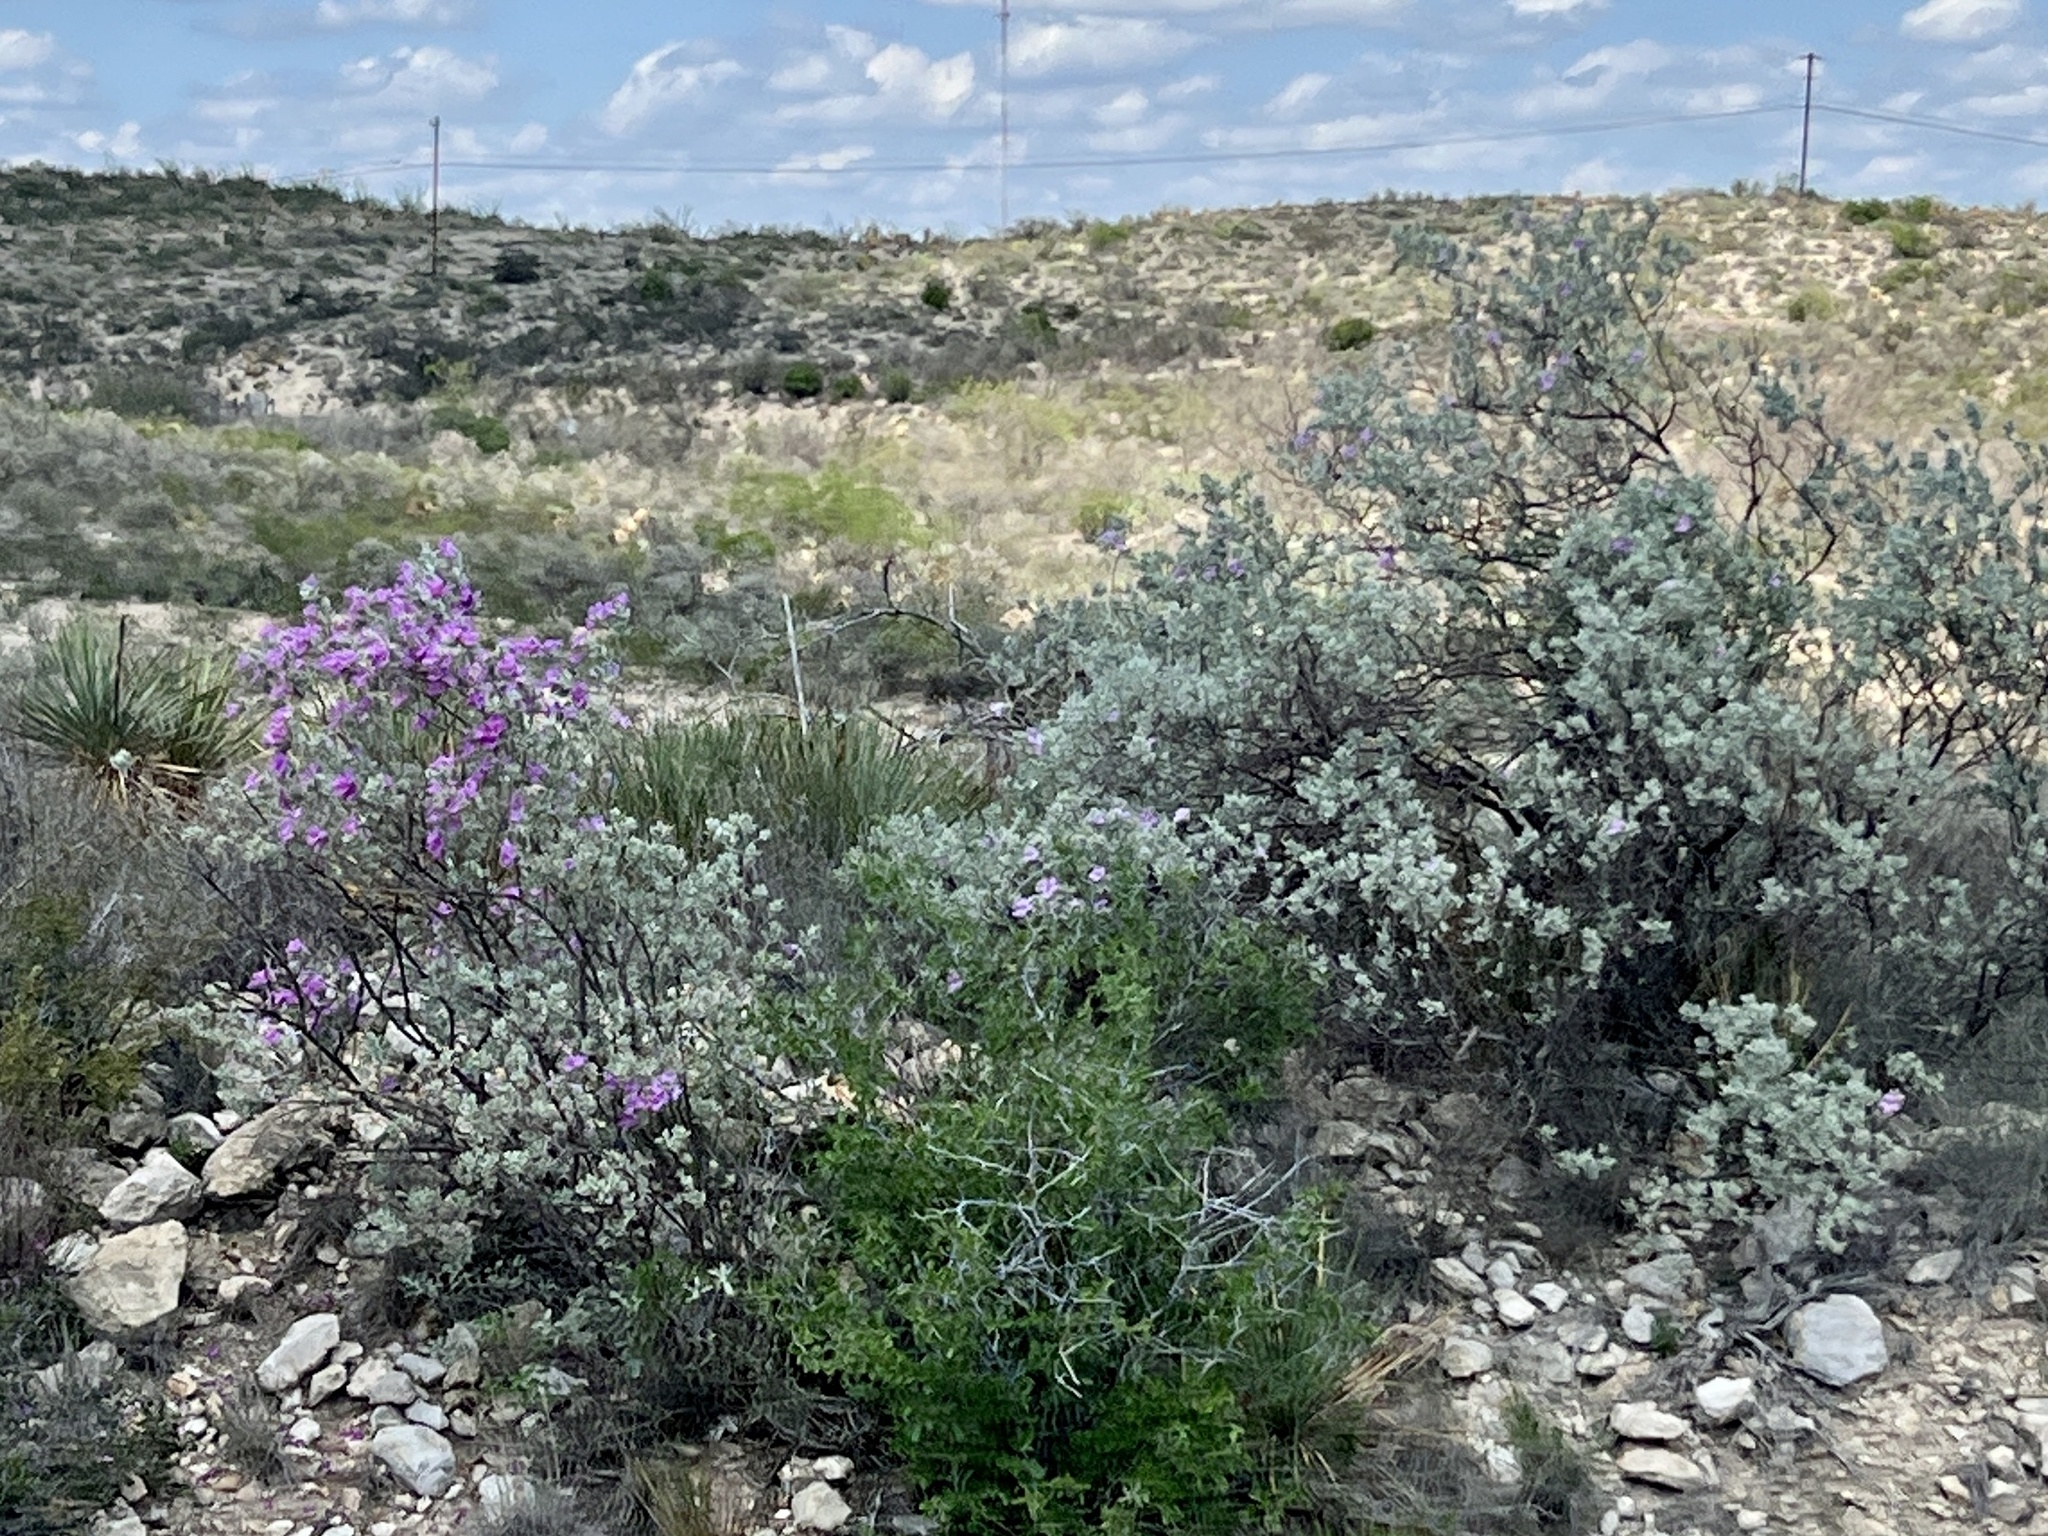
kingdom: Plantae
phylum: Tracheophyta
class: Magnoliopsida
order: Lamiales
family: Scrophulariaceae
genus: Leucophyllum
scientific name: Leucophyllum frutescens
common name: Texas silverleaf
